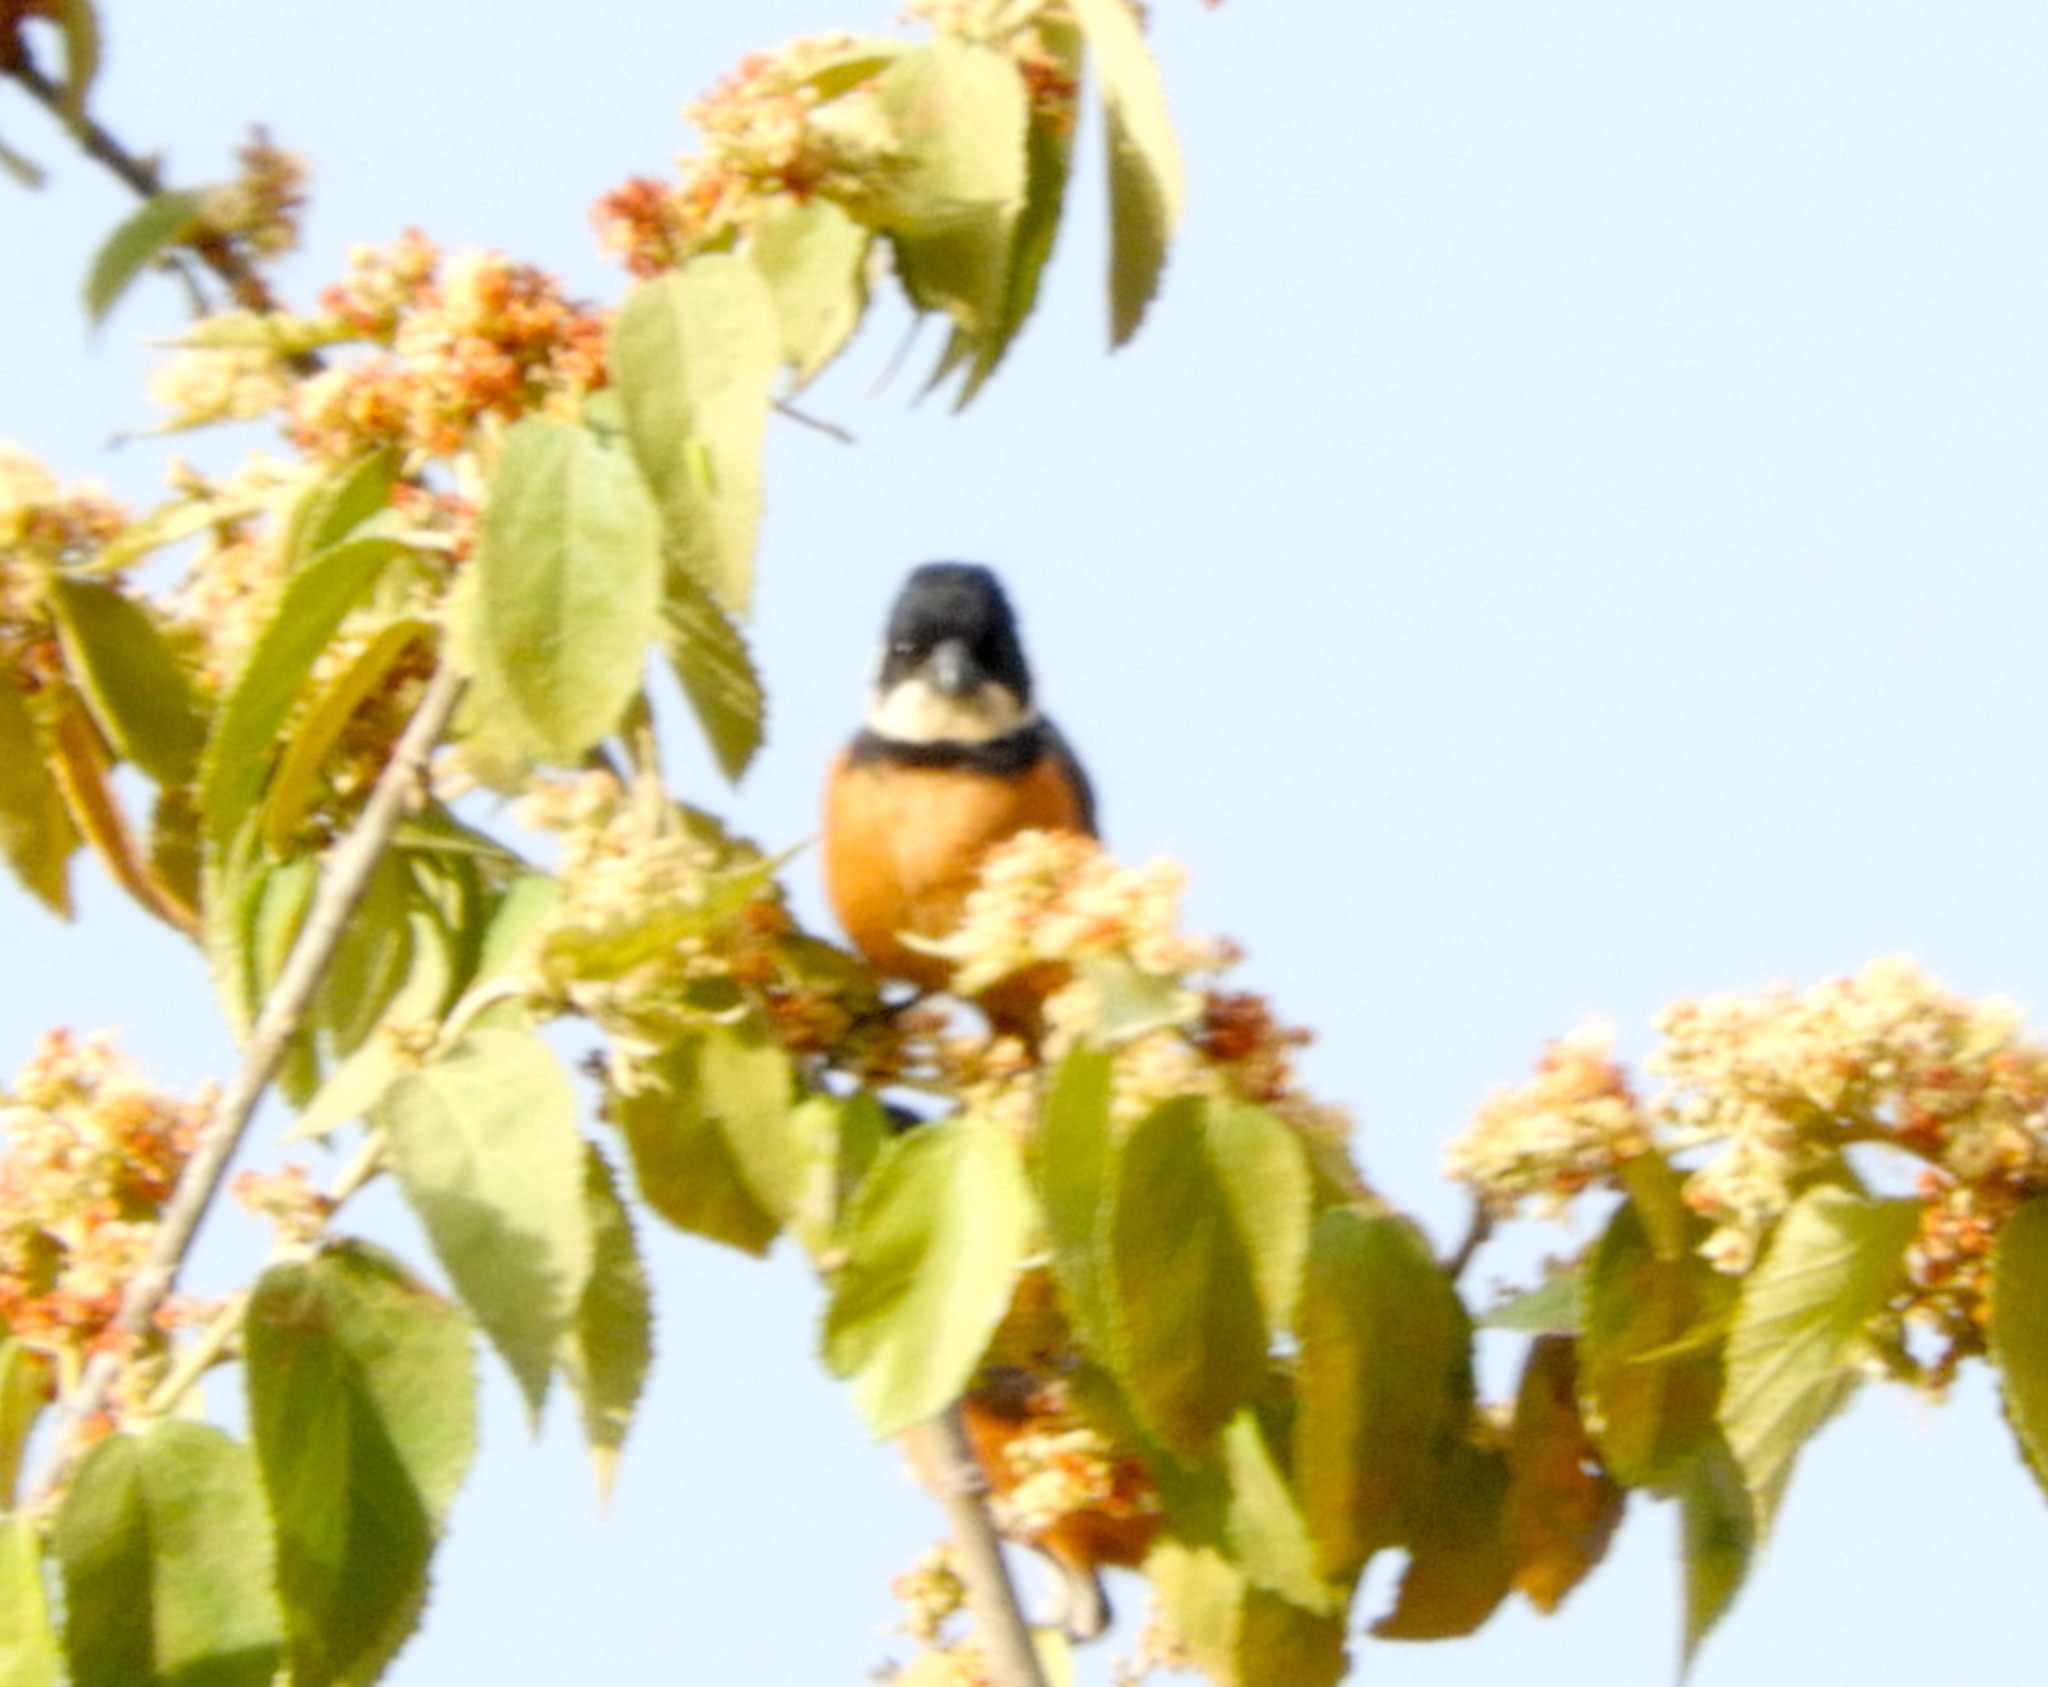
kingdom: Animalia
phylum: Chordata
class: Aves
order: Passeriformes
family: Thraupidae
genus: Sporophila
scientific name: Sporophila torqueola
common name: White-collared seedeater
